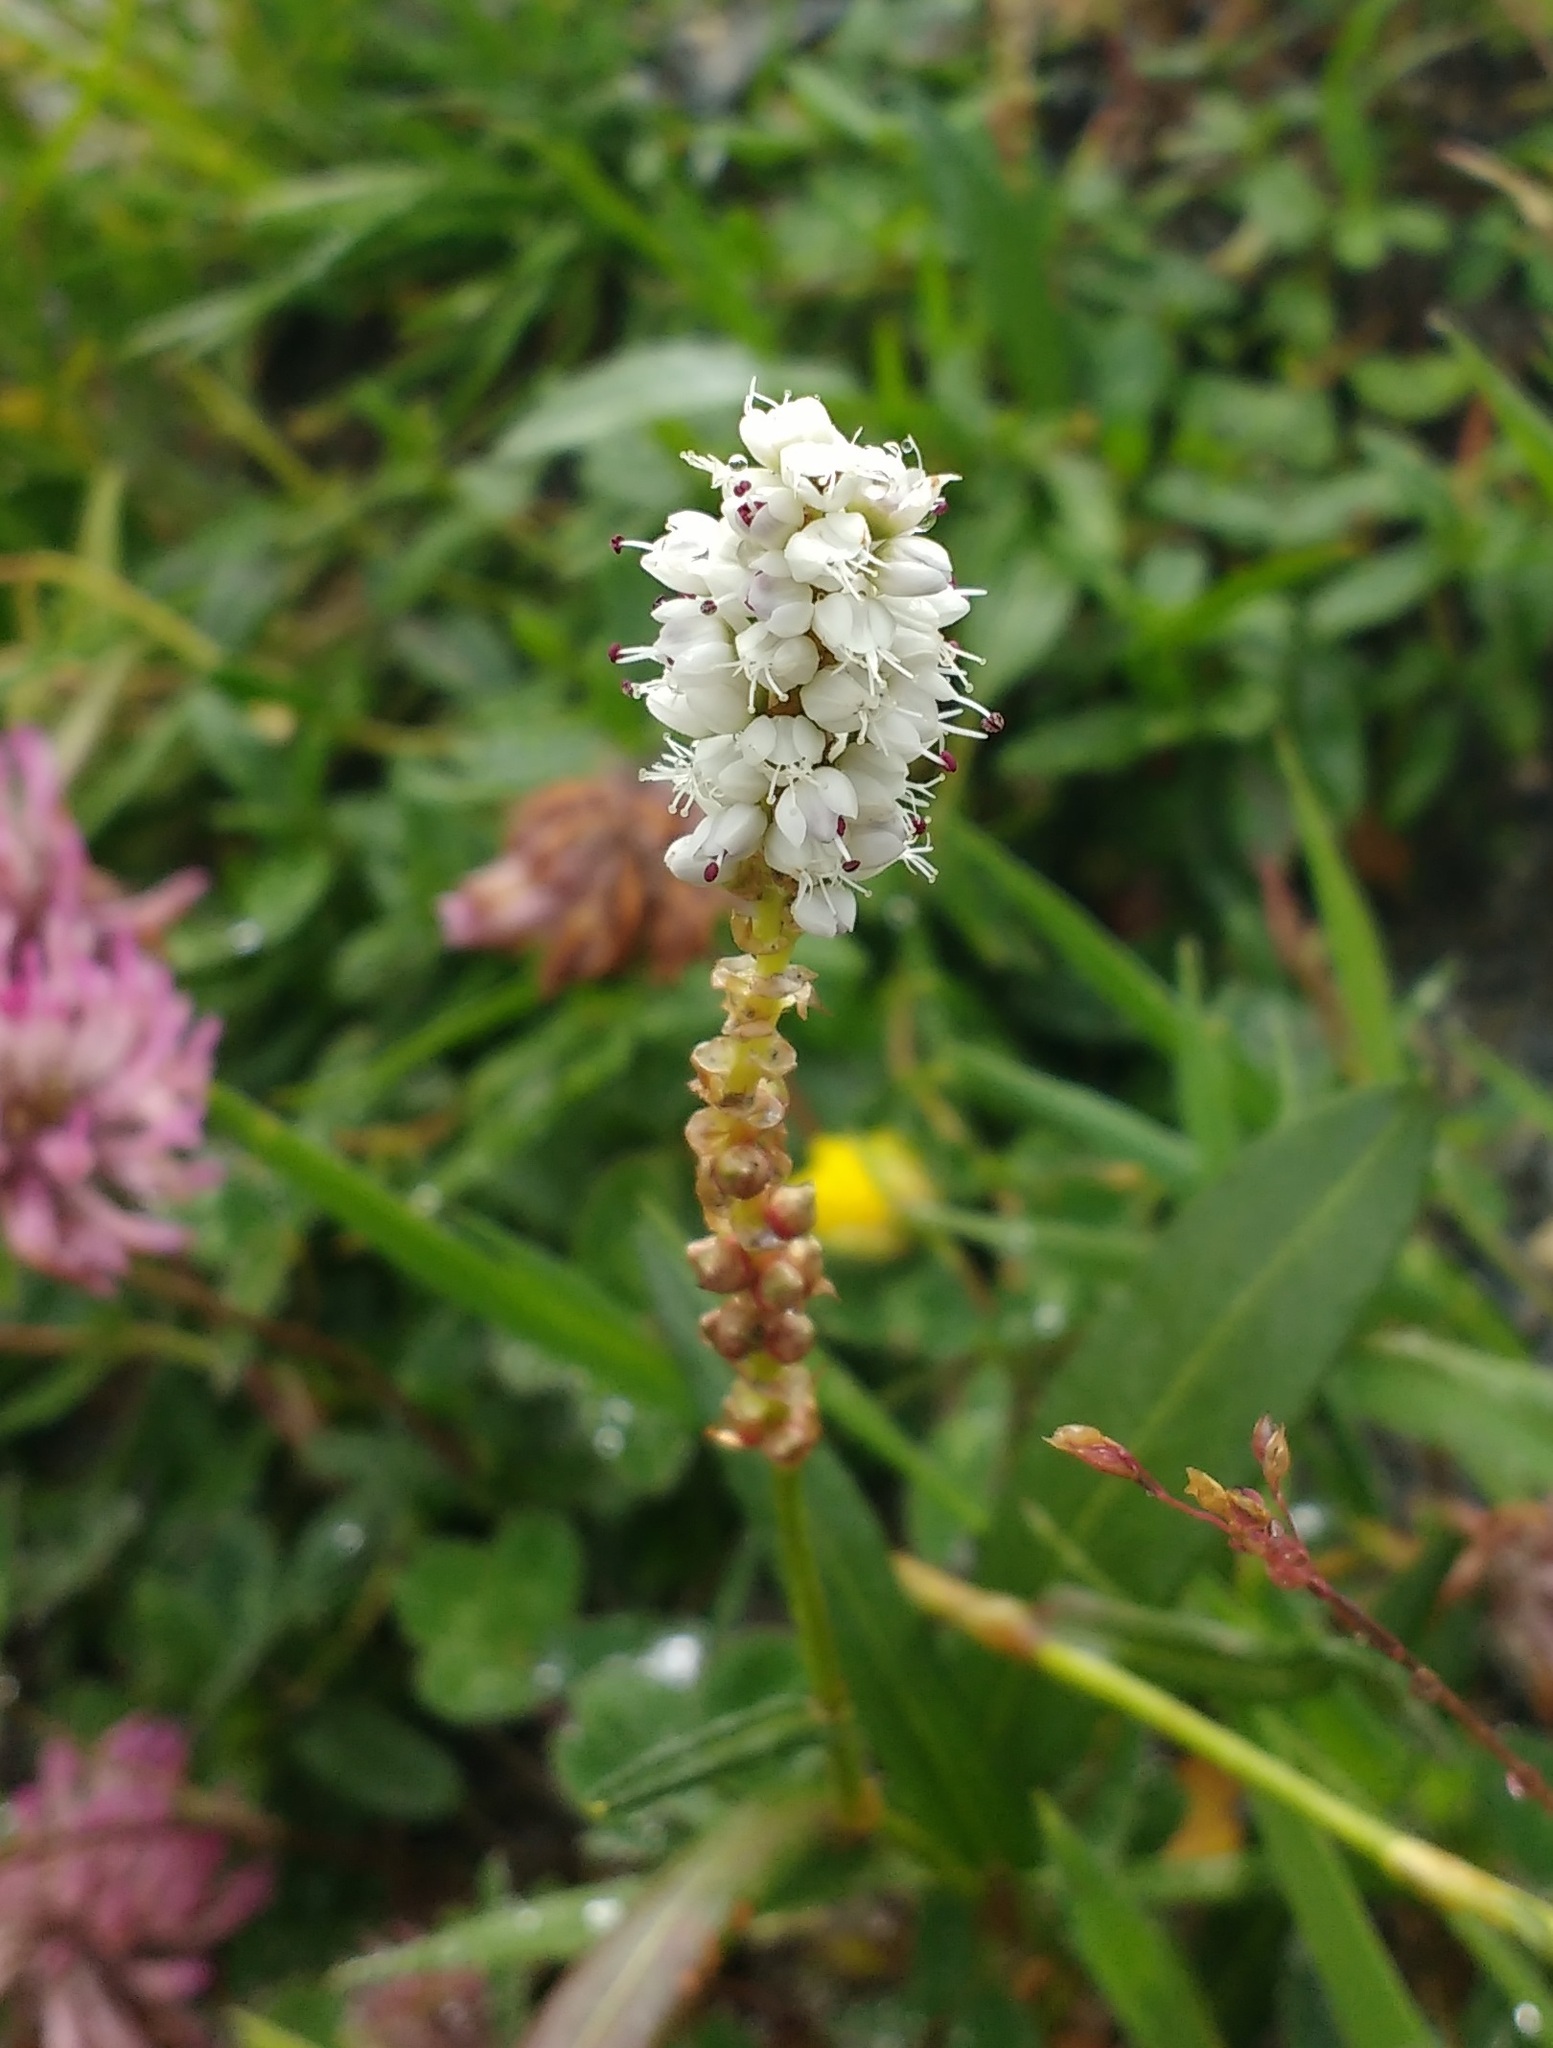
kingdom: Plantae
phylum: Tracheophyta
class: Magnoliopsida
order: Caryophyllales
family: Polygonaceae
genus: Bistorta
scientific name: Bistorta vivipara
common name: Alpine bistort
